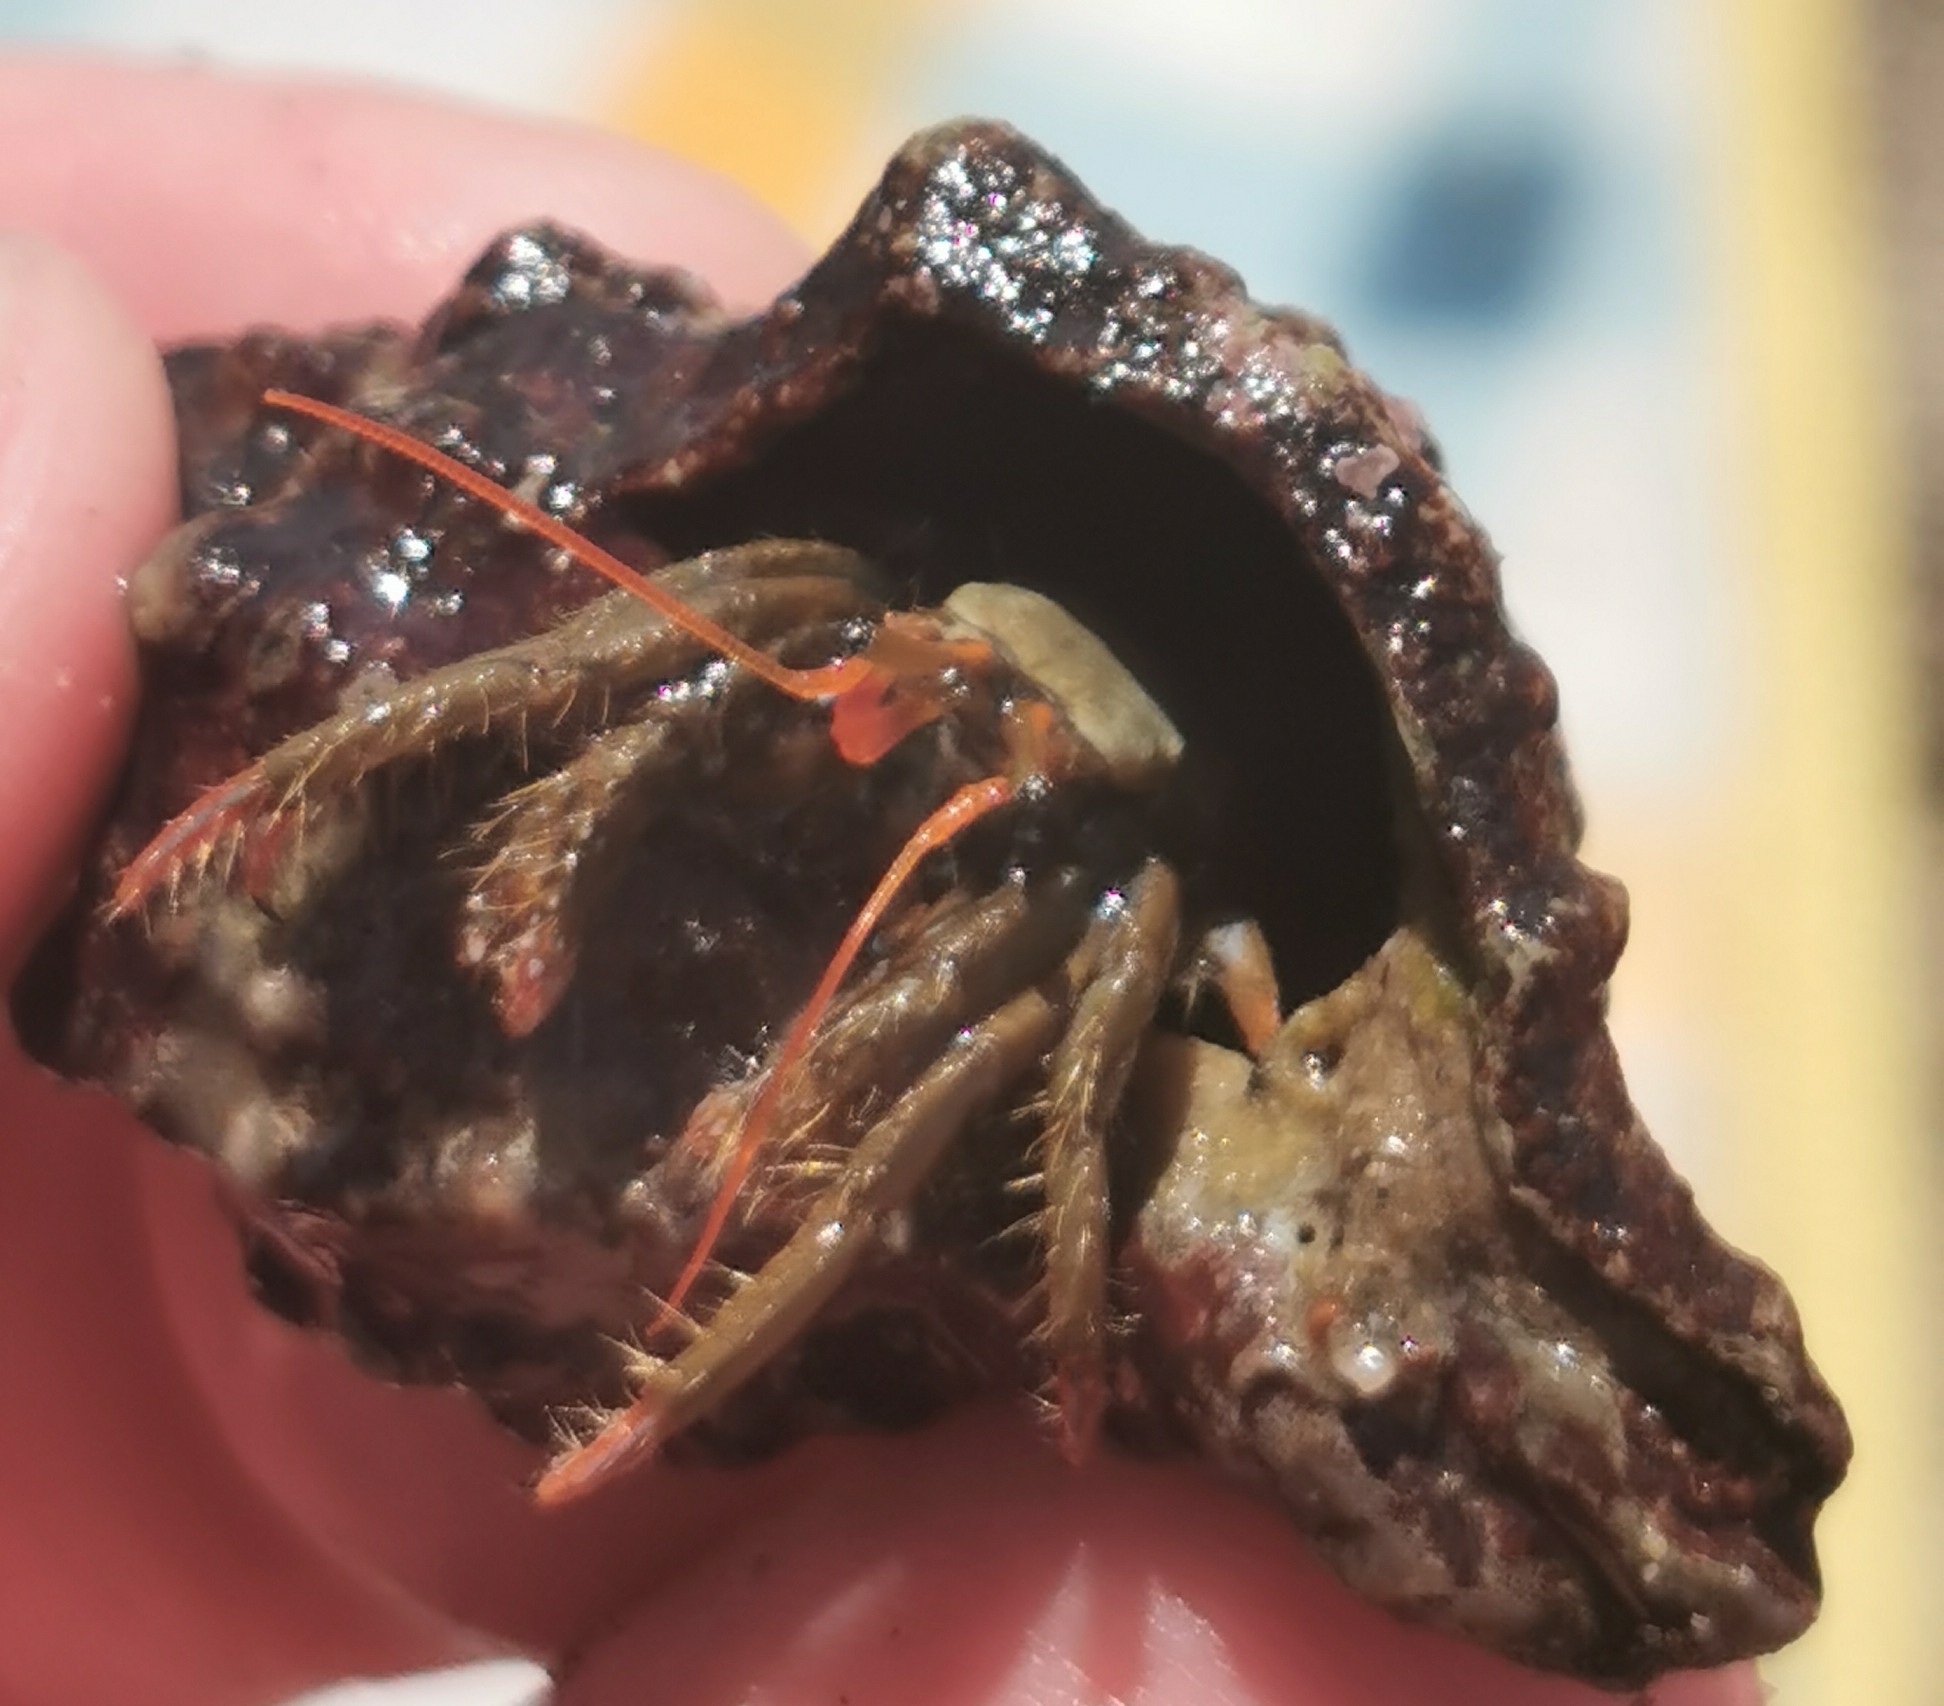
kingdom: Animalia
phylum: Arthropoda
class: Malacostraca
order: Decapoda
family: Diogenidae
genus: Clibanarius
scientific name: Clibanarius erythropus
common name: Hermit crab
